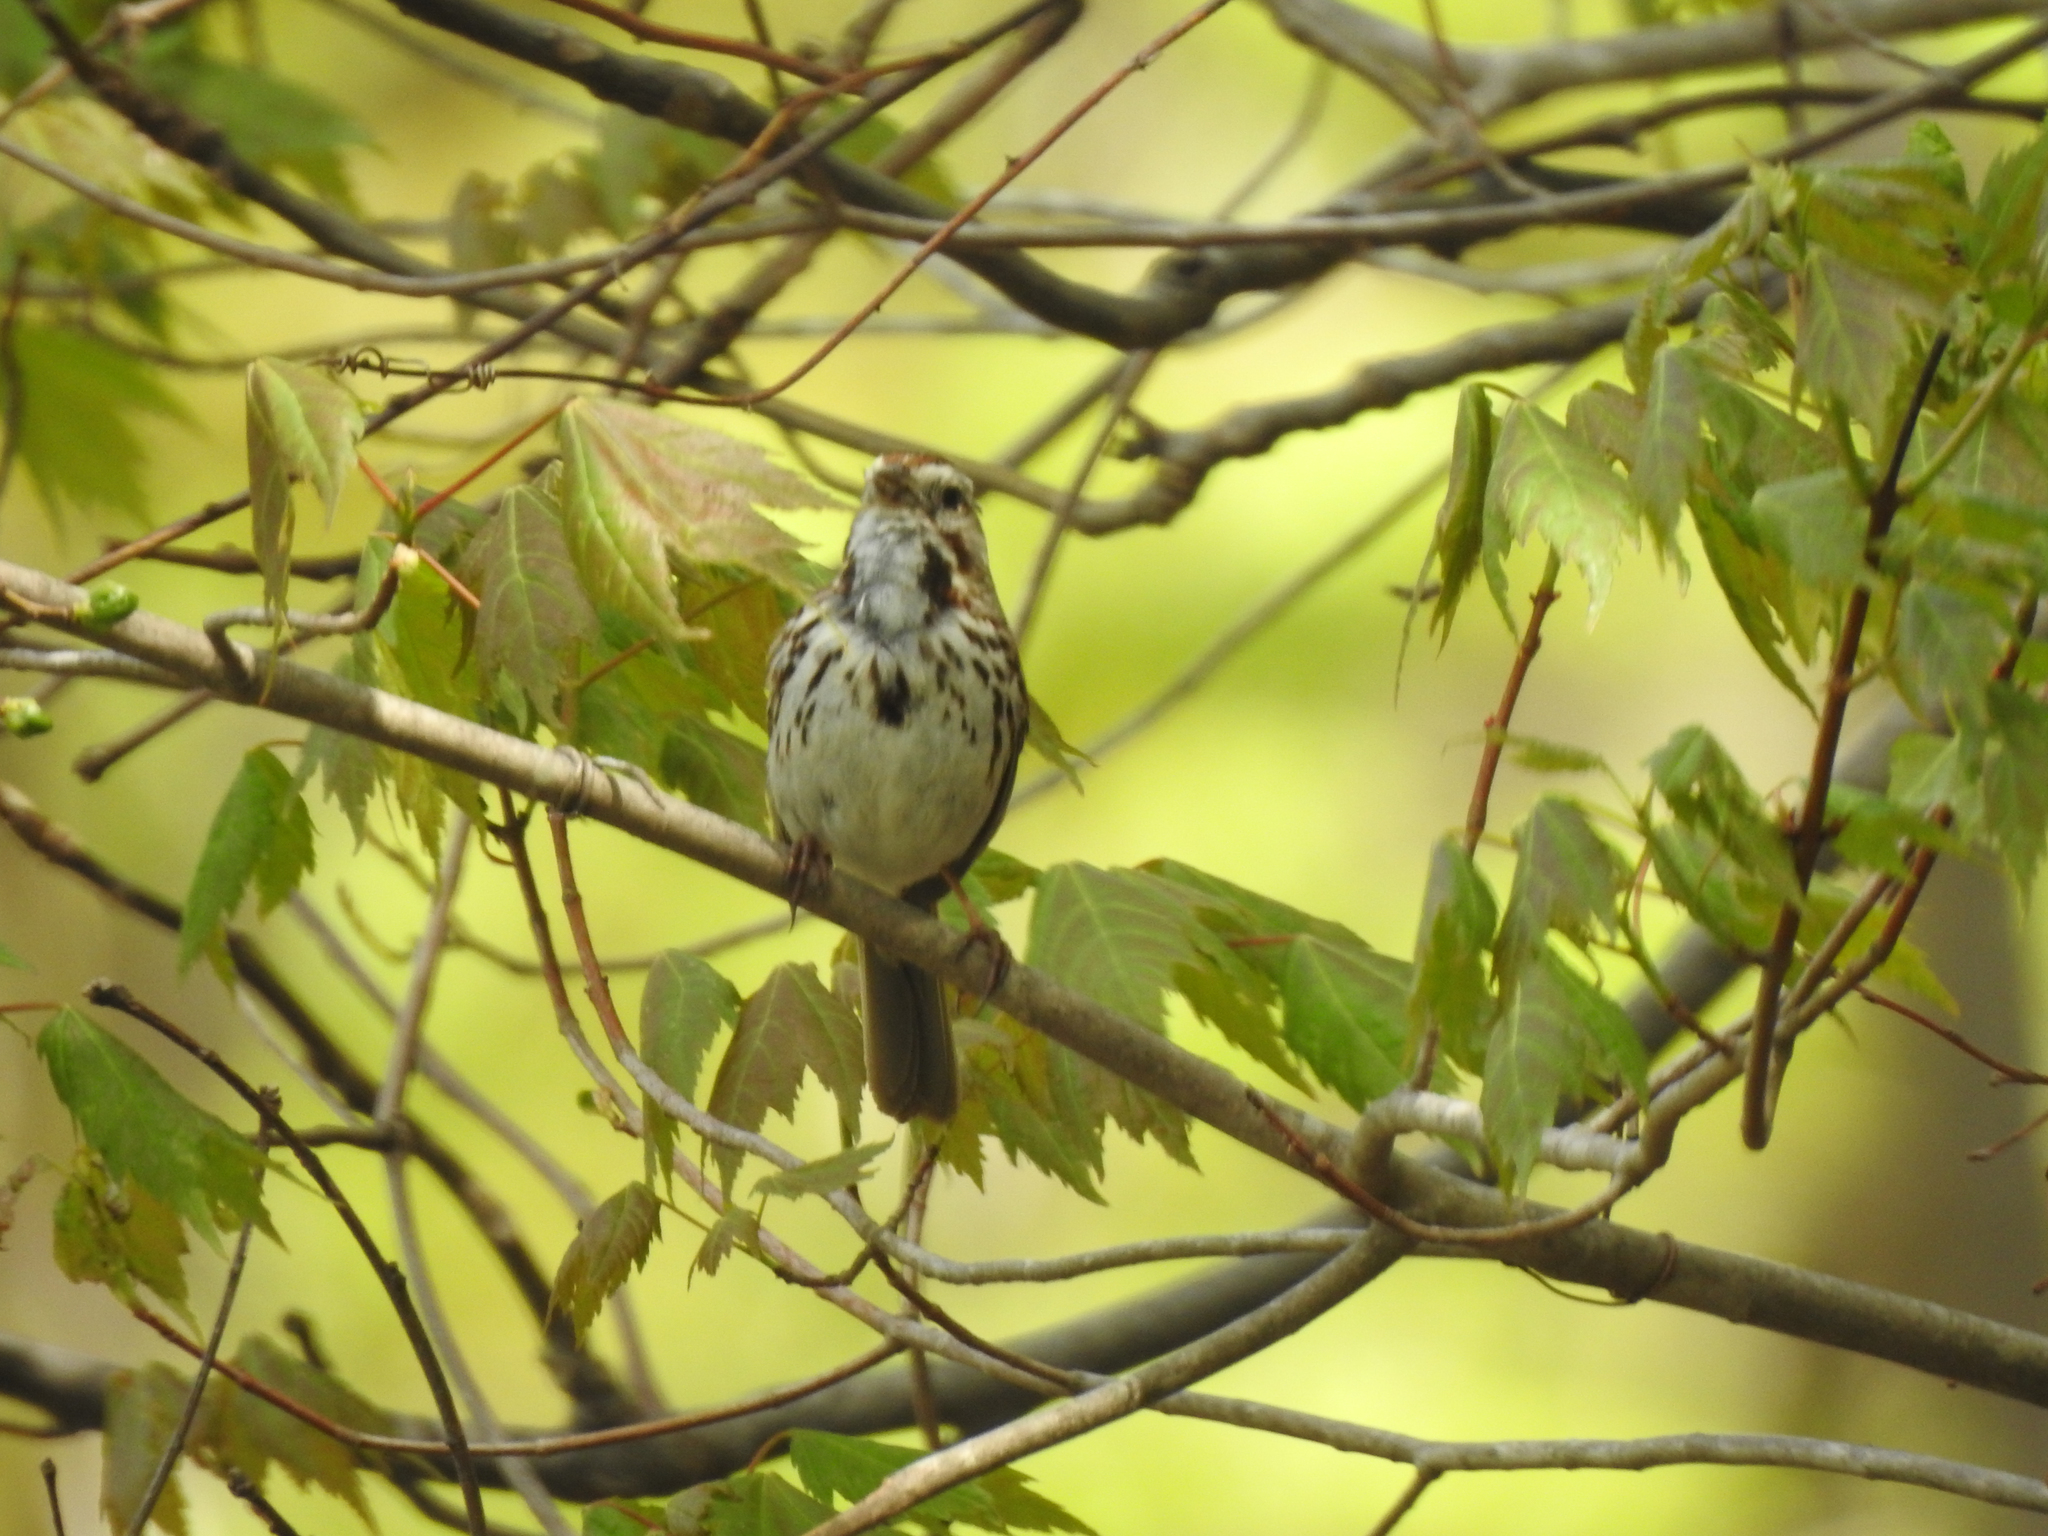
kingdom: Animalia
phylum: Chordata
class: Aves
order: Passeriformes
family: Passerellidae
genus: Melospiza
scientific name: Melospiza melodia
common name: Song sparrow
